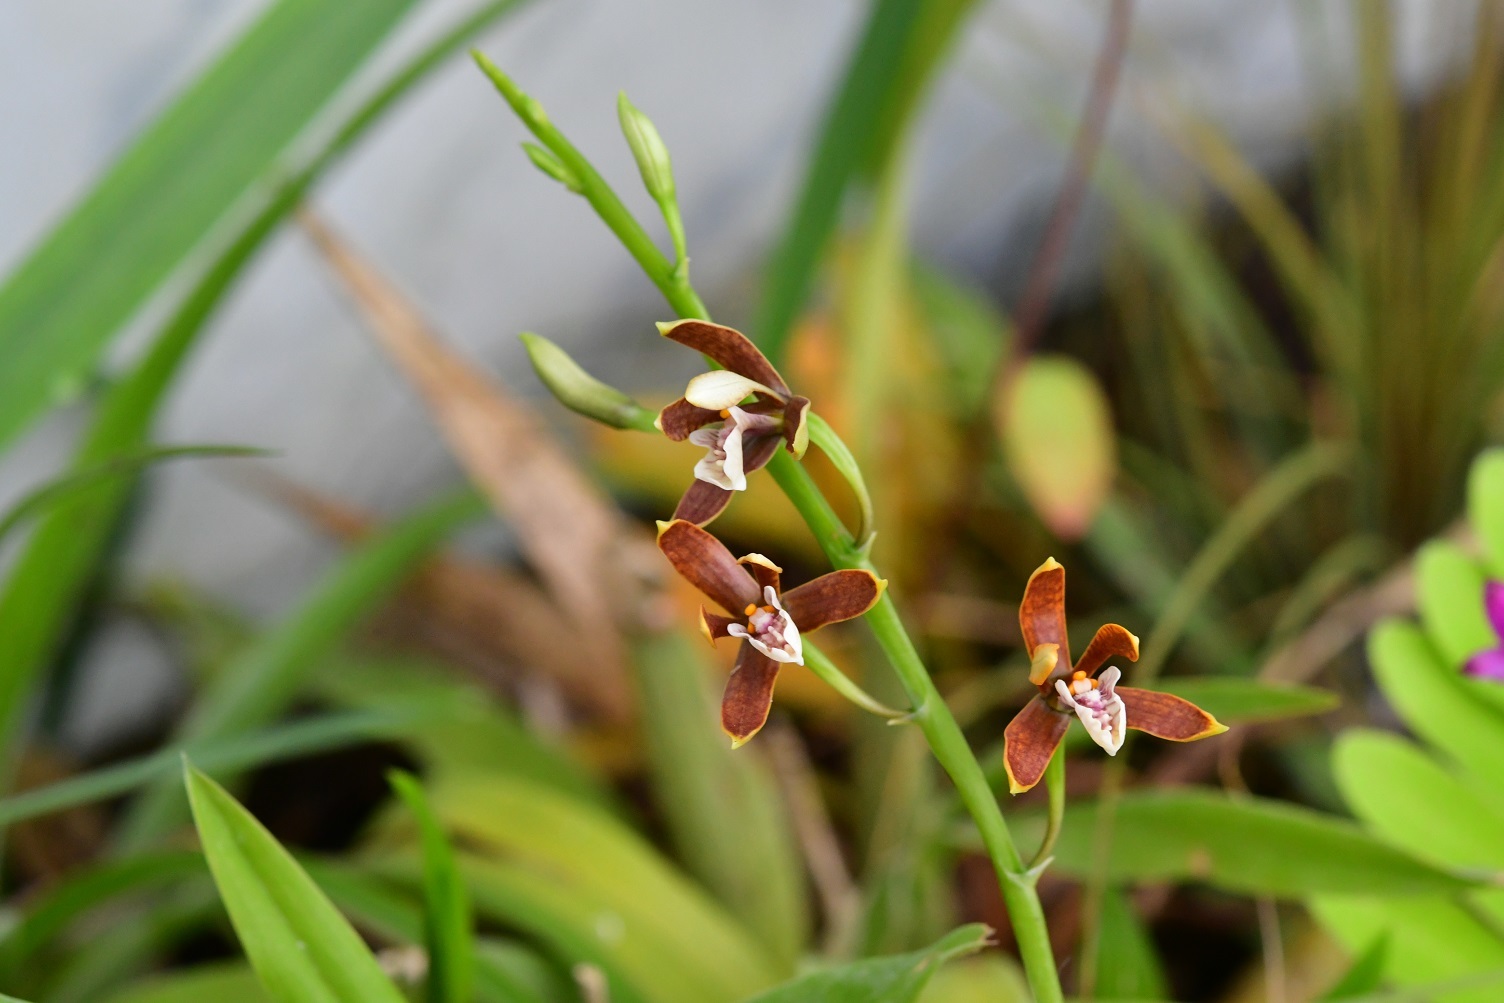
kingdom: Plantae
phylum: Tracheophyta
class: Liliopsida
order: Asparagales
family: Orchidaceae
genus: Prosthechea
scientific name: Prosthechea livida
